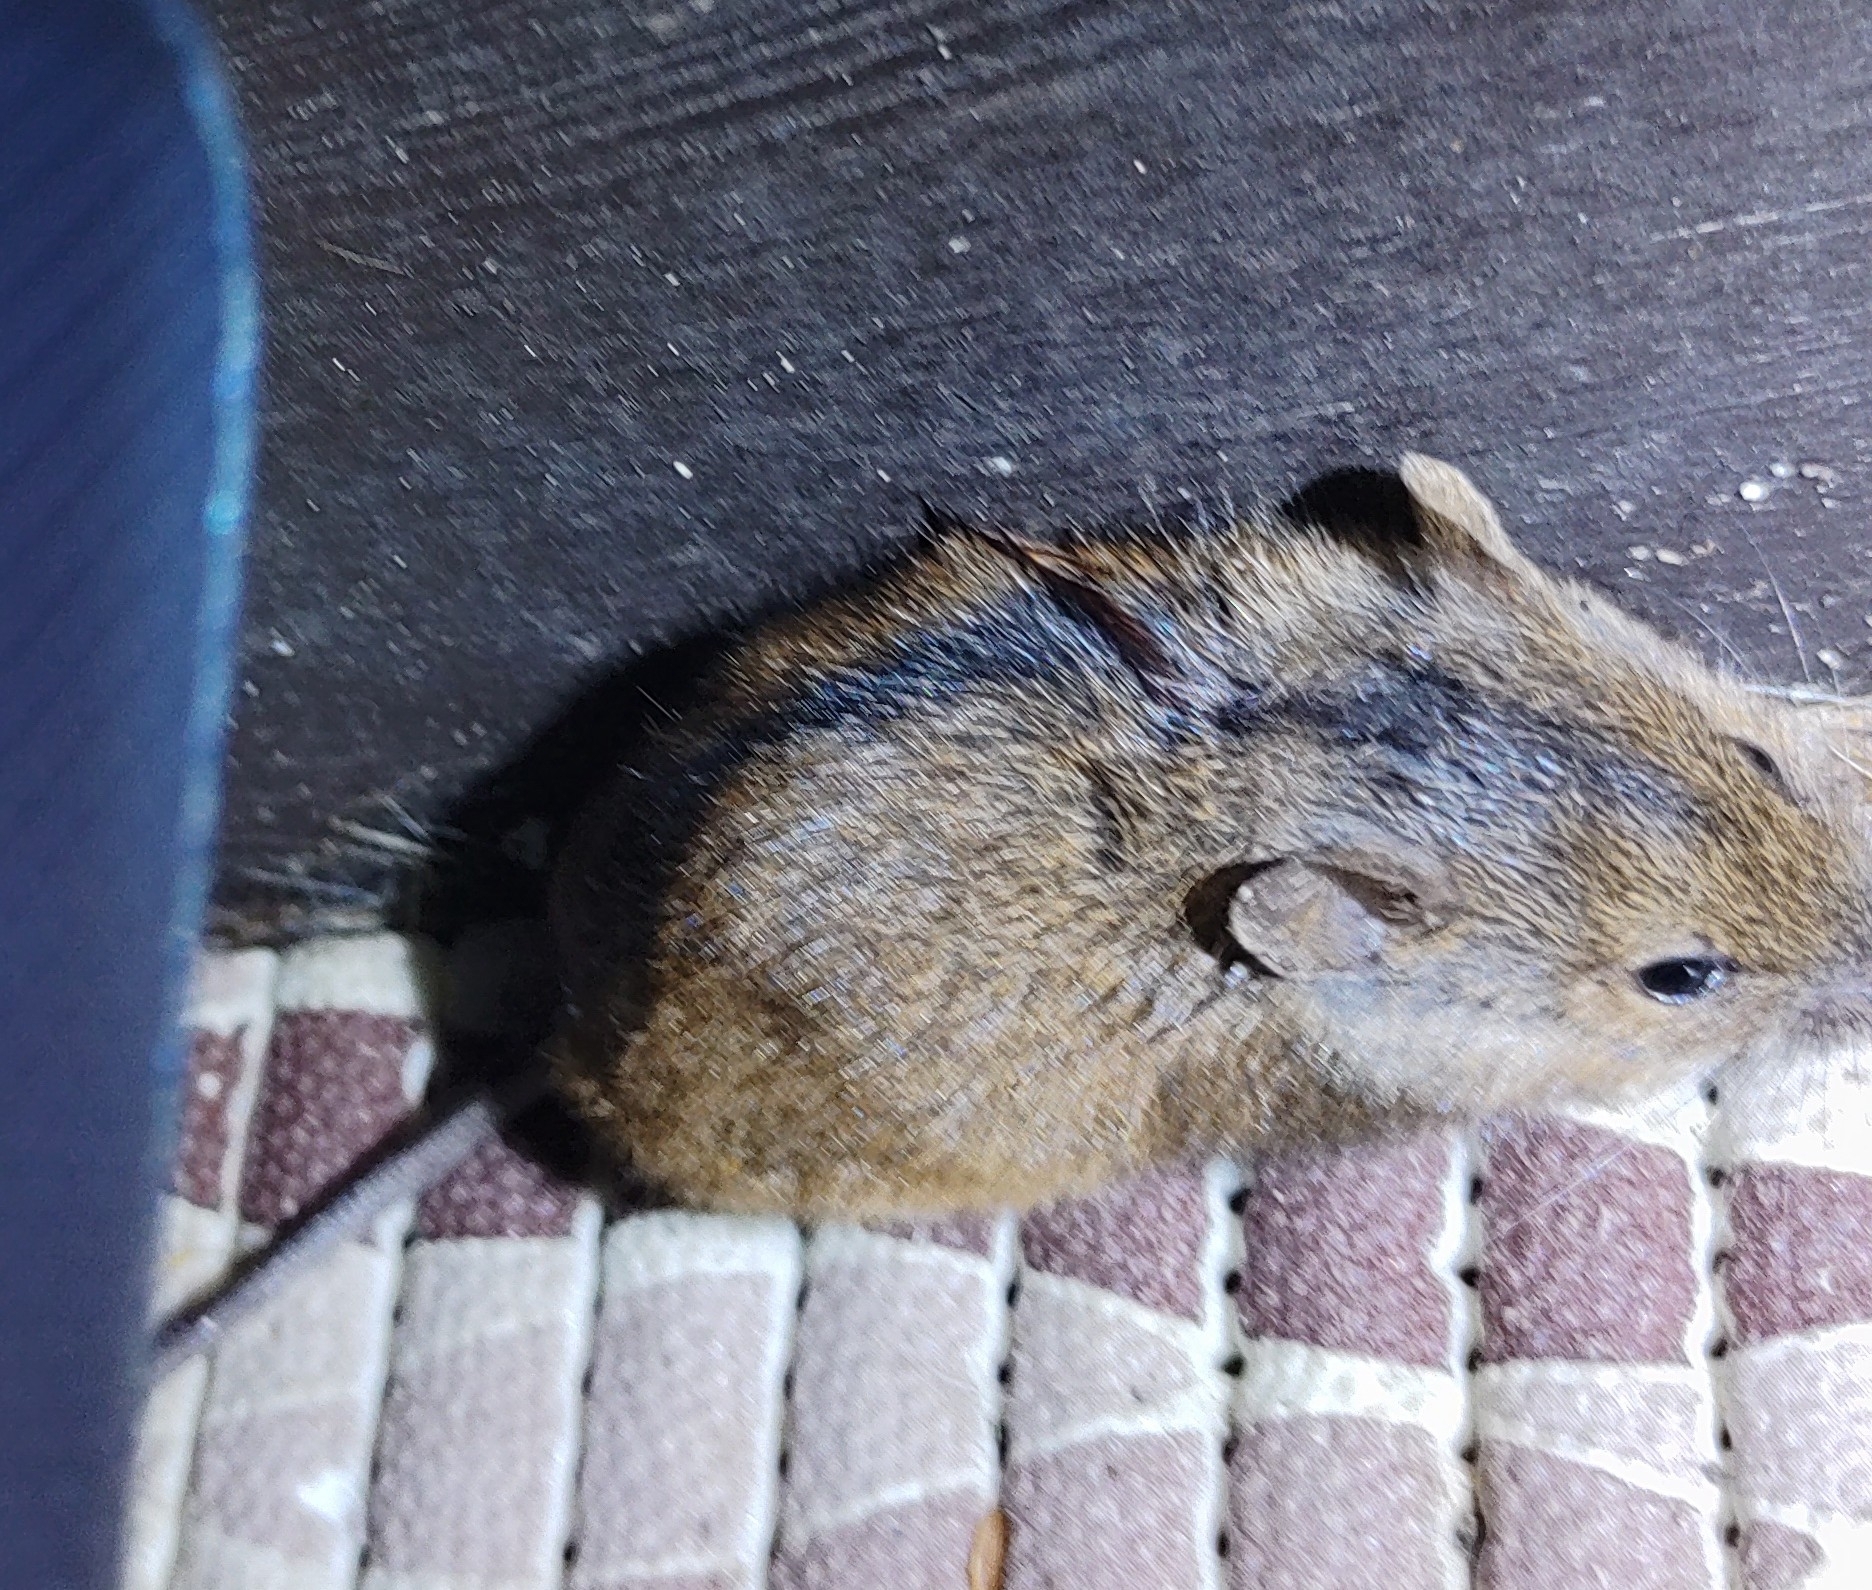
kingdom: Animalia
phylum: Chordata
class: Mammalia
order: Rodentia
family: Muridae
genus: Apodemus
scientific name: Apodemus agrarius
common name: Striped field mouse
